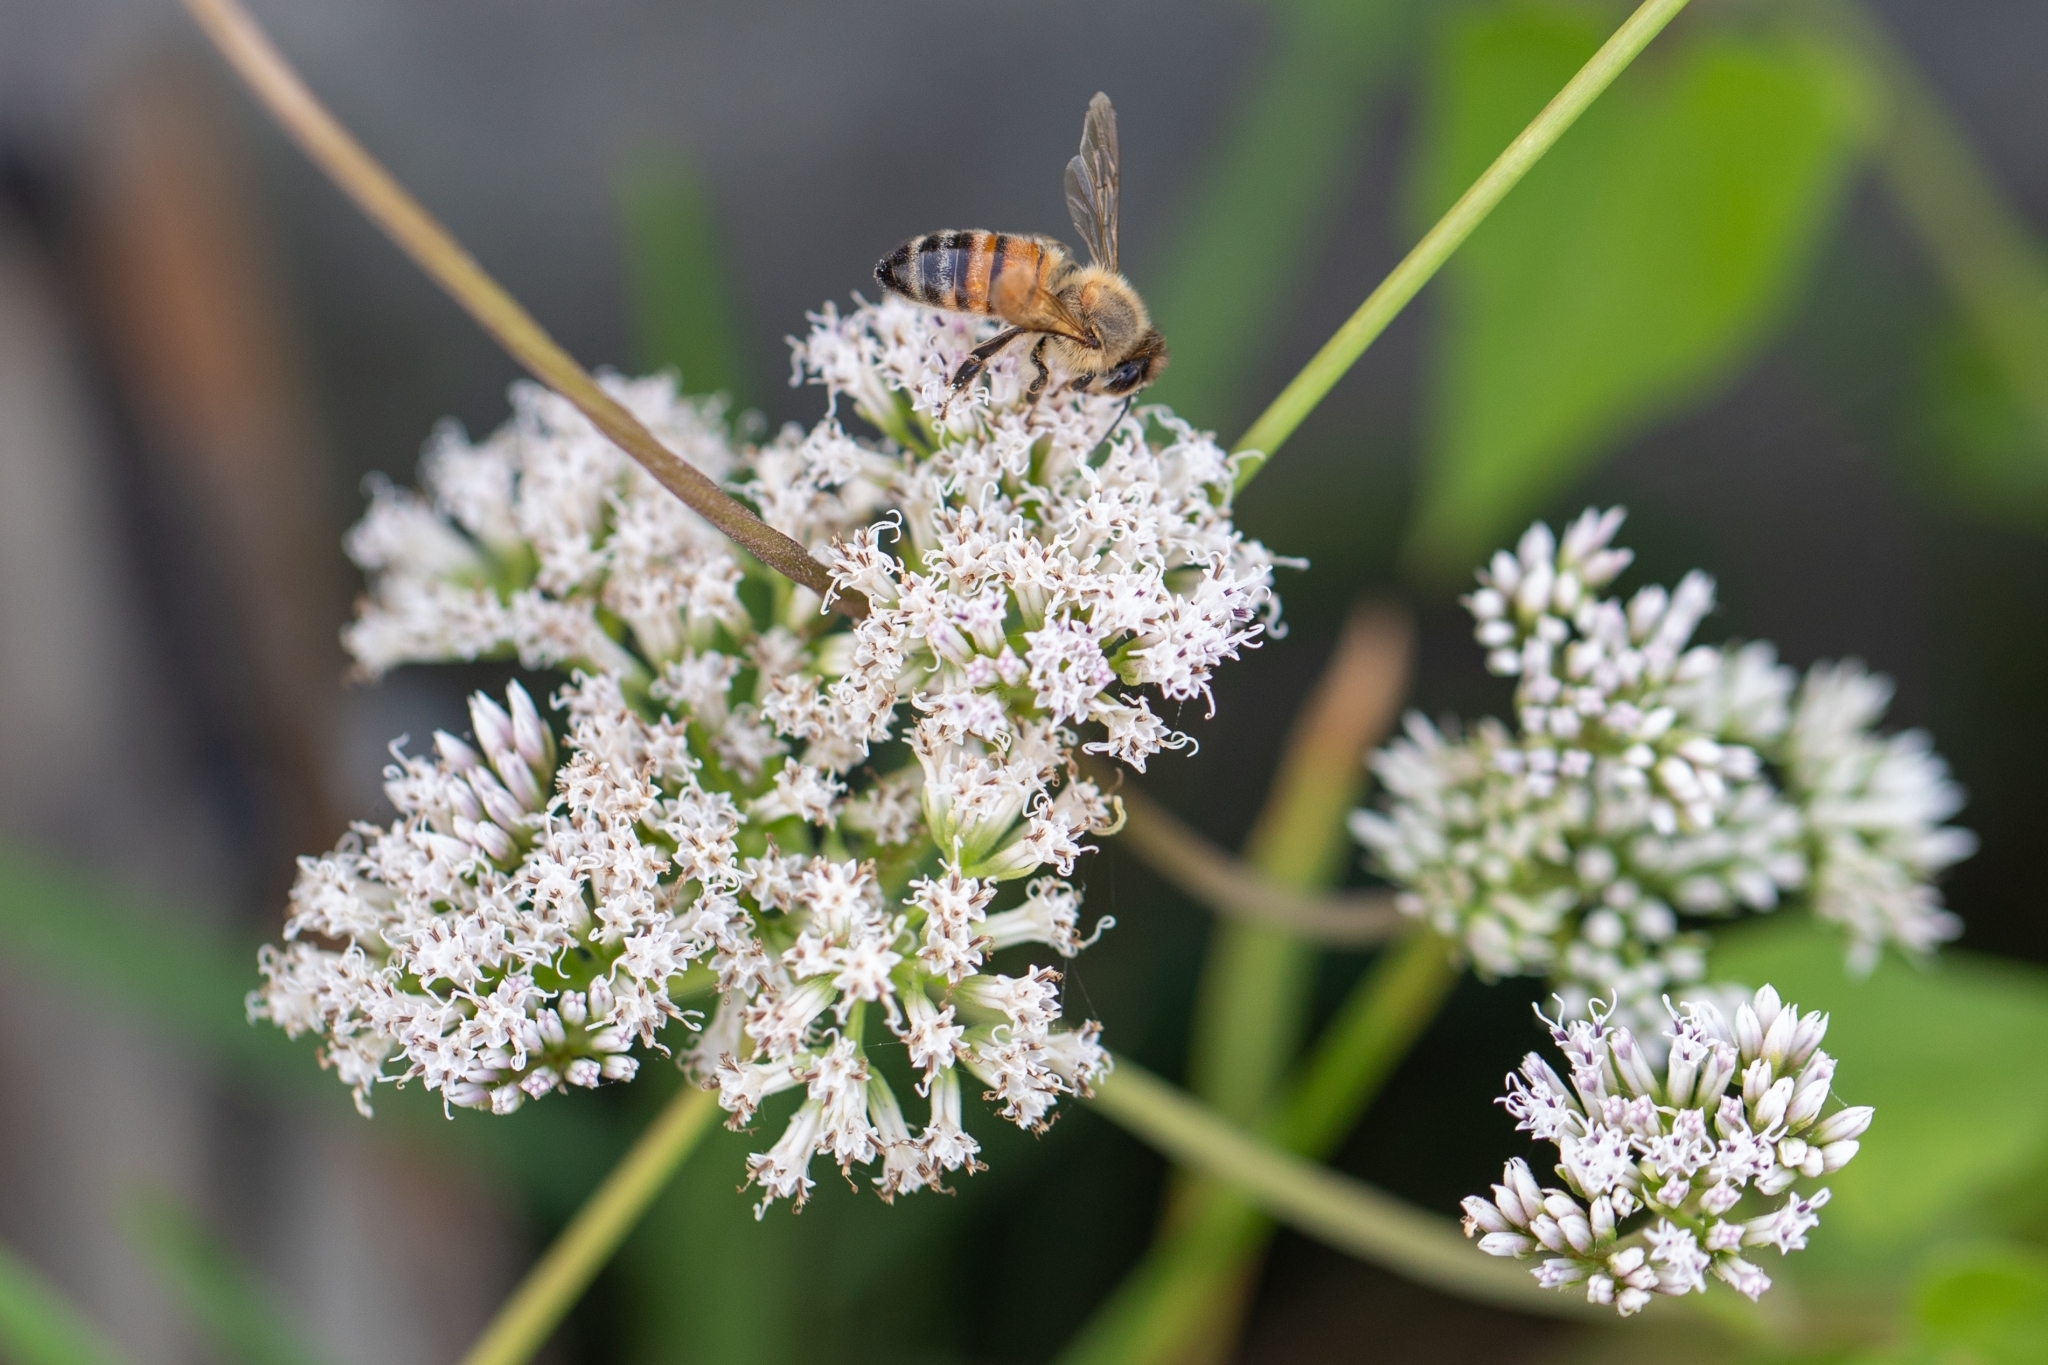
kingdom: Animalia
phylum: Arthropoda
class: Insecta
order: Hymenoptera
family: Apidae
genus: Apis
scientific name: Apis mellifera
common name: Honey bee
